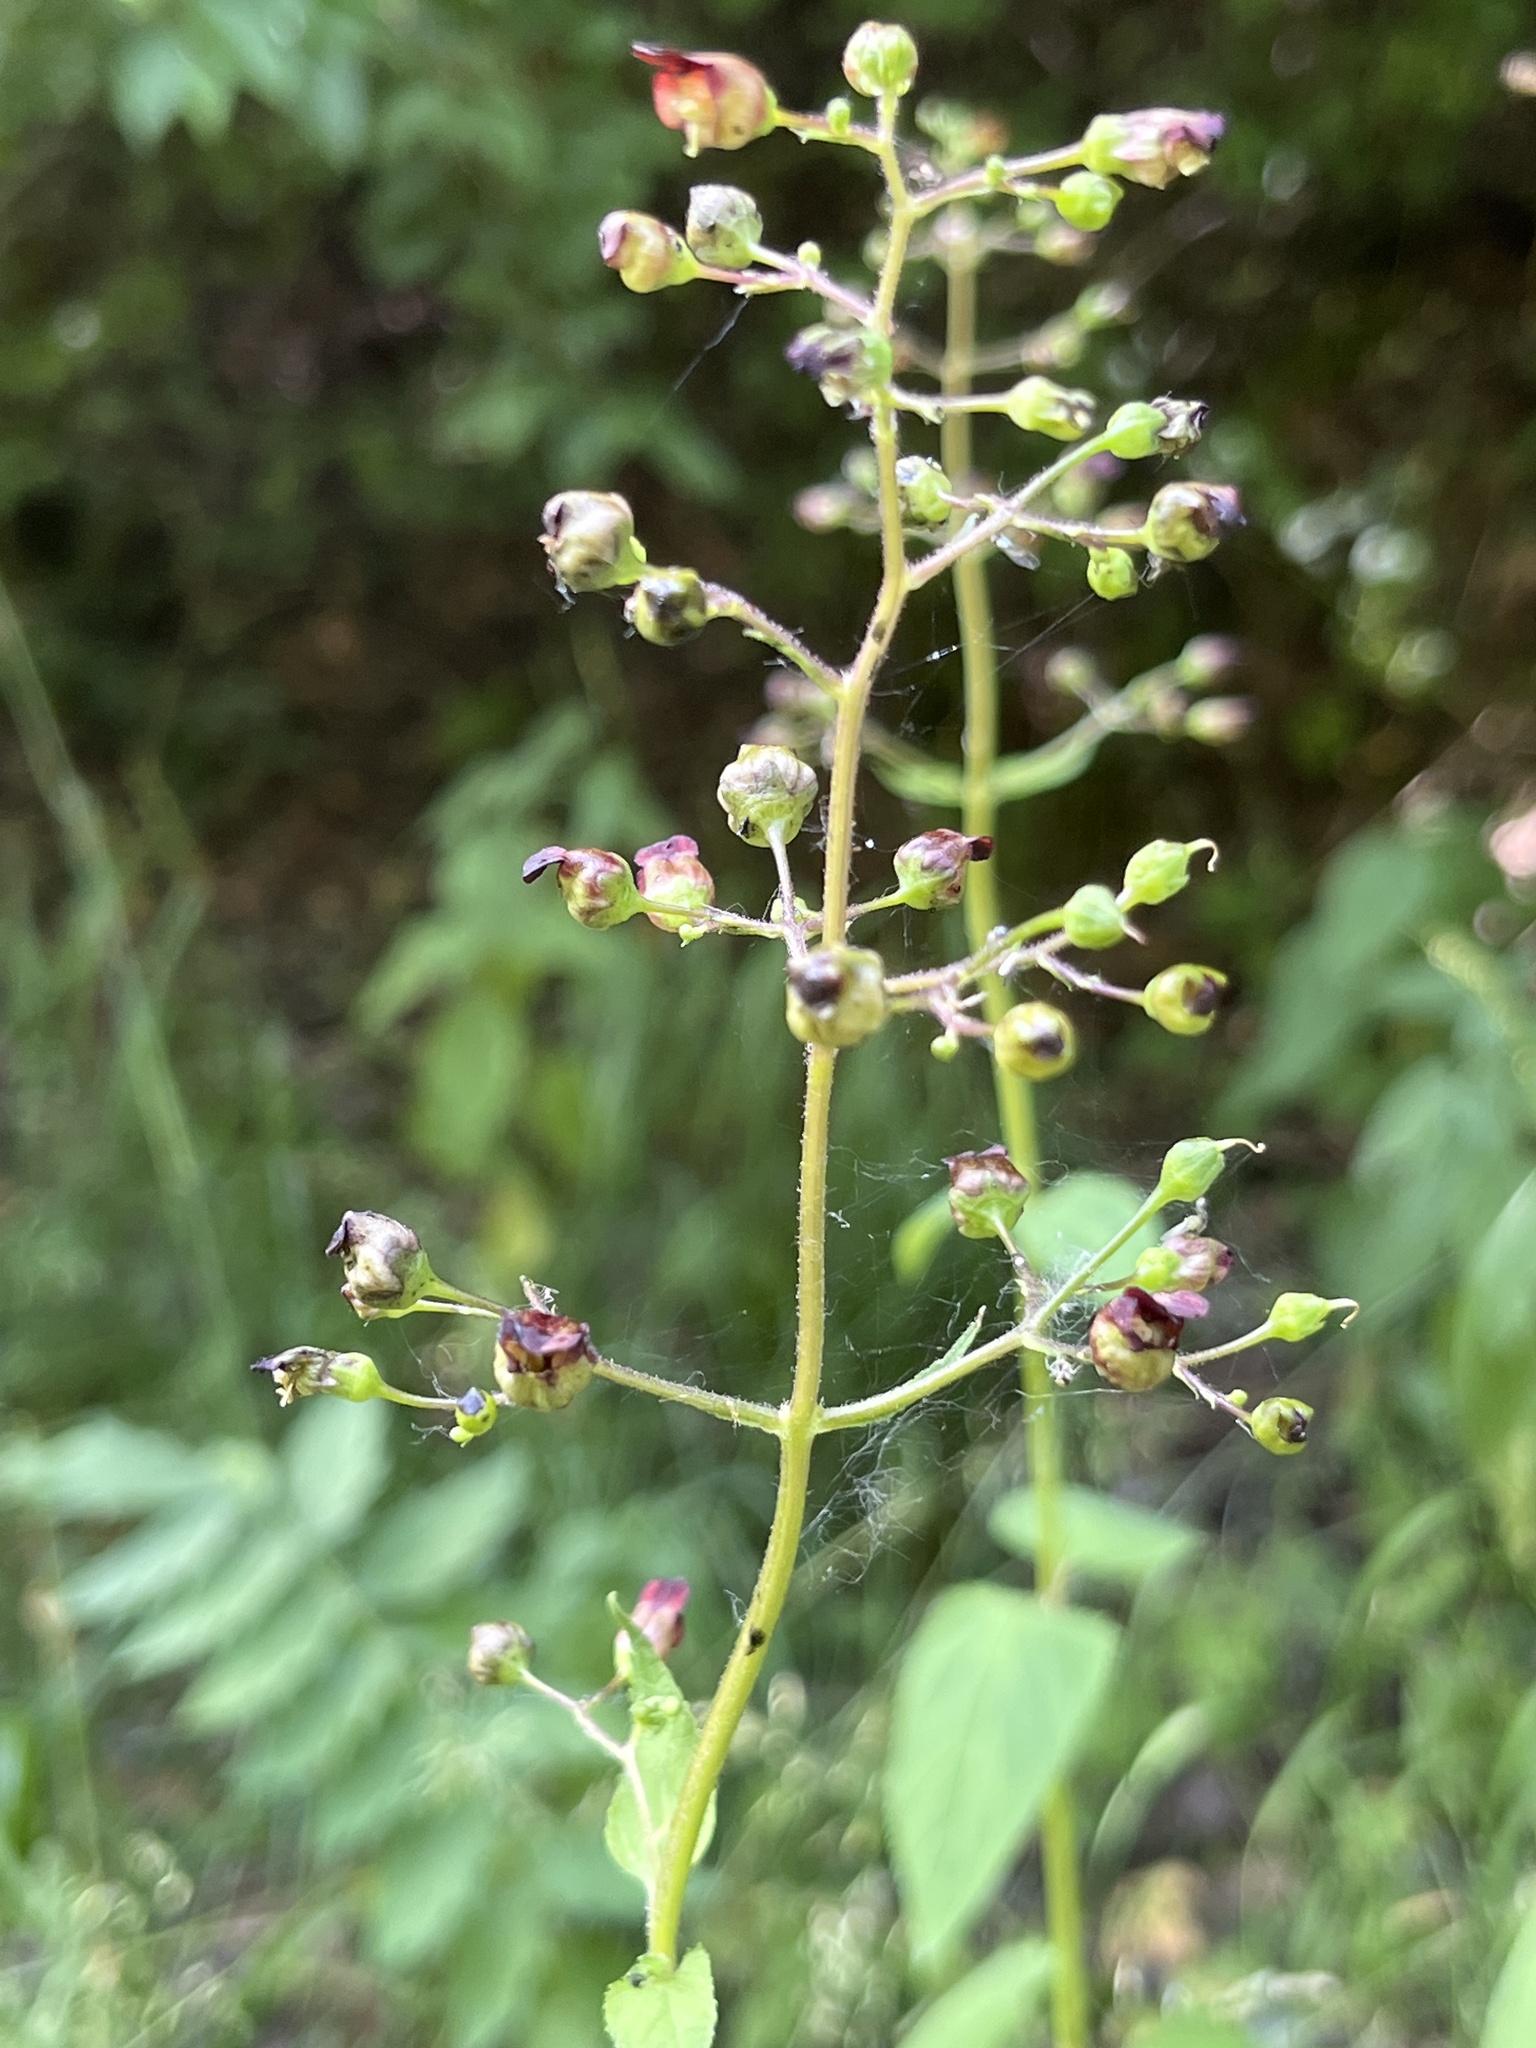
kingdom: Plantae
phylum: Tracheophyta
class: Magnoliopsida
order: Lamiales
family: Scrophulariaceae
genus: Scrophularia
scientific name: Scrophularia nodosa
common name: Common figwort
